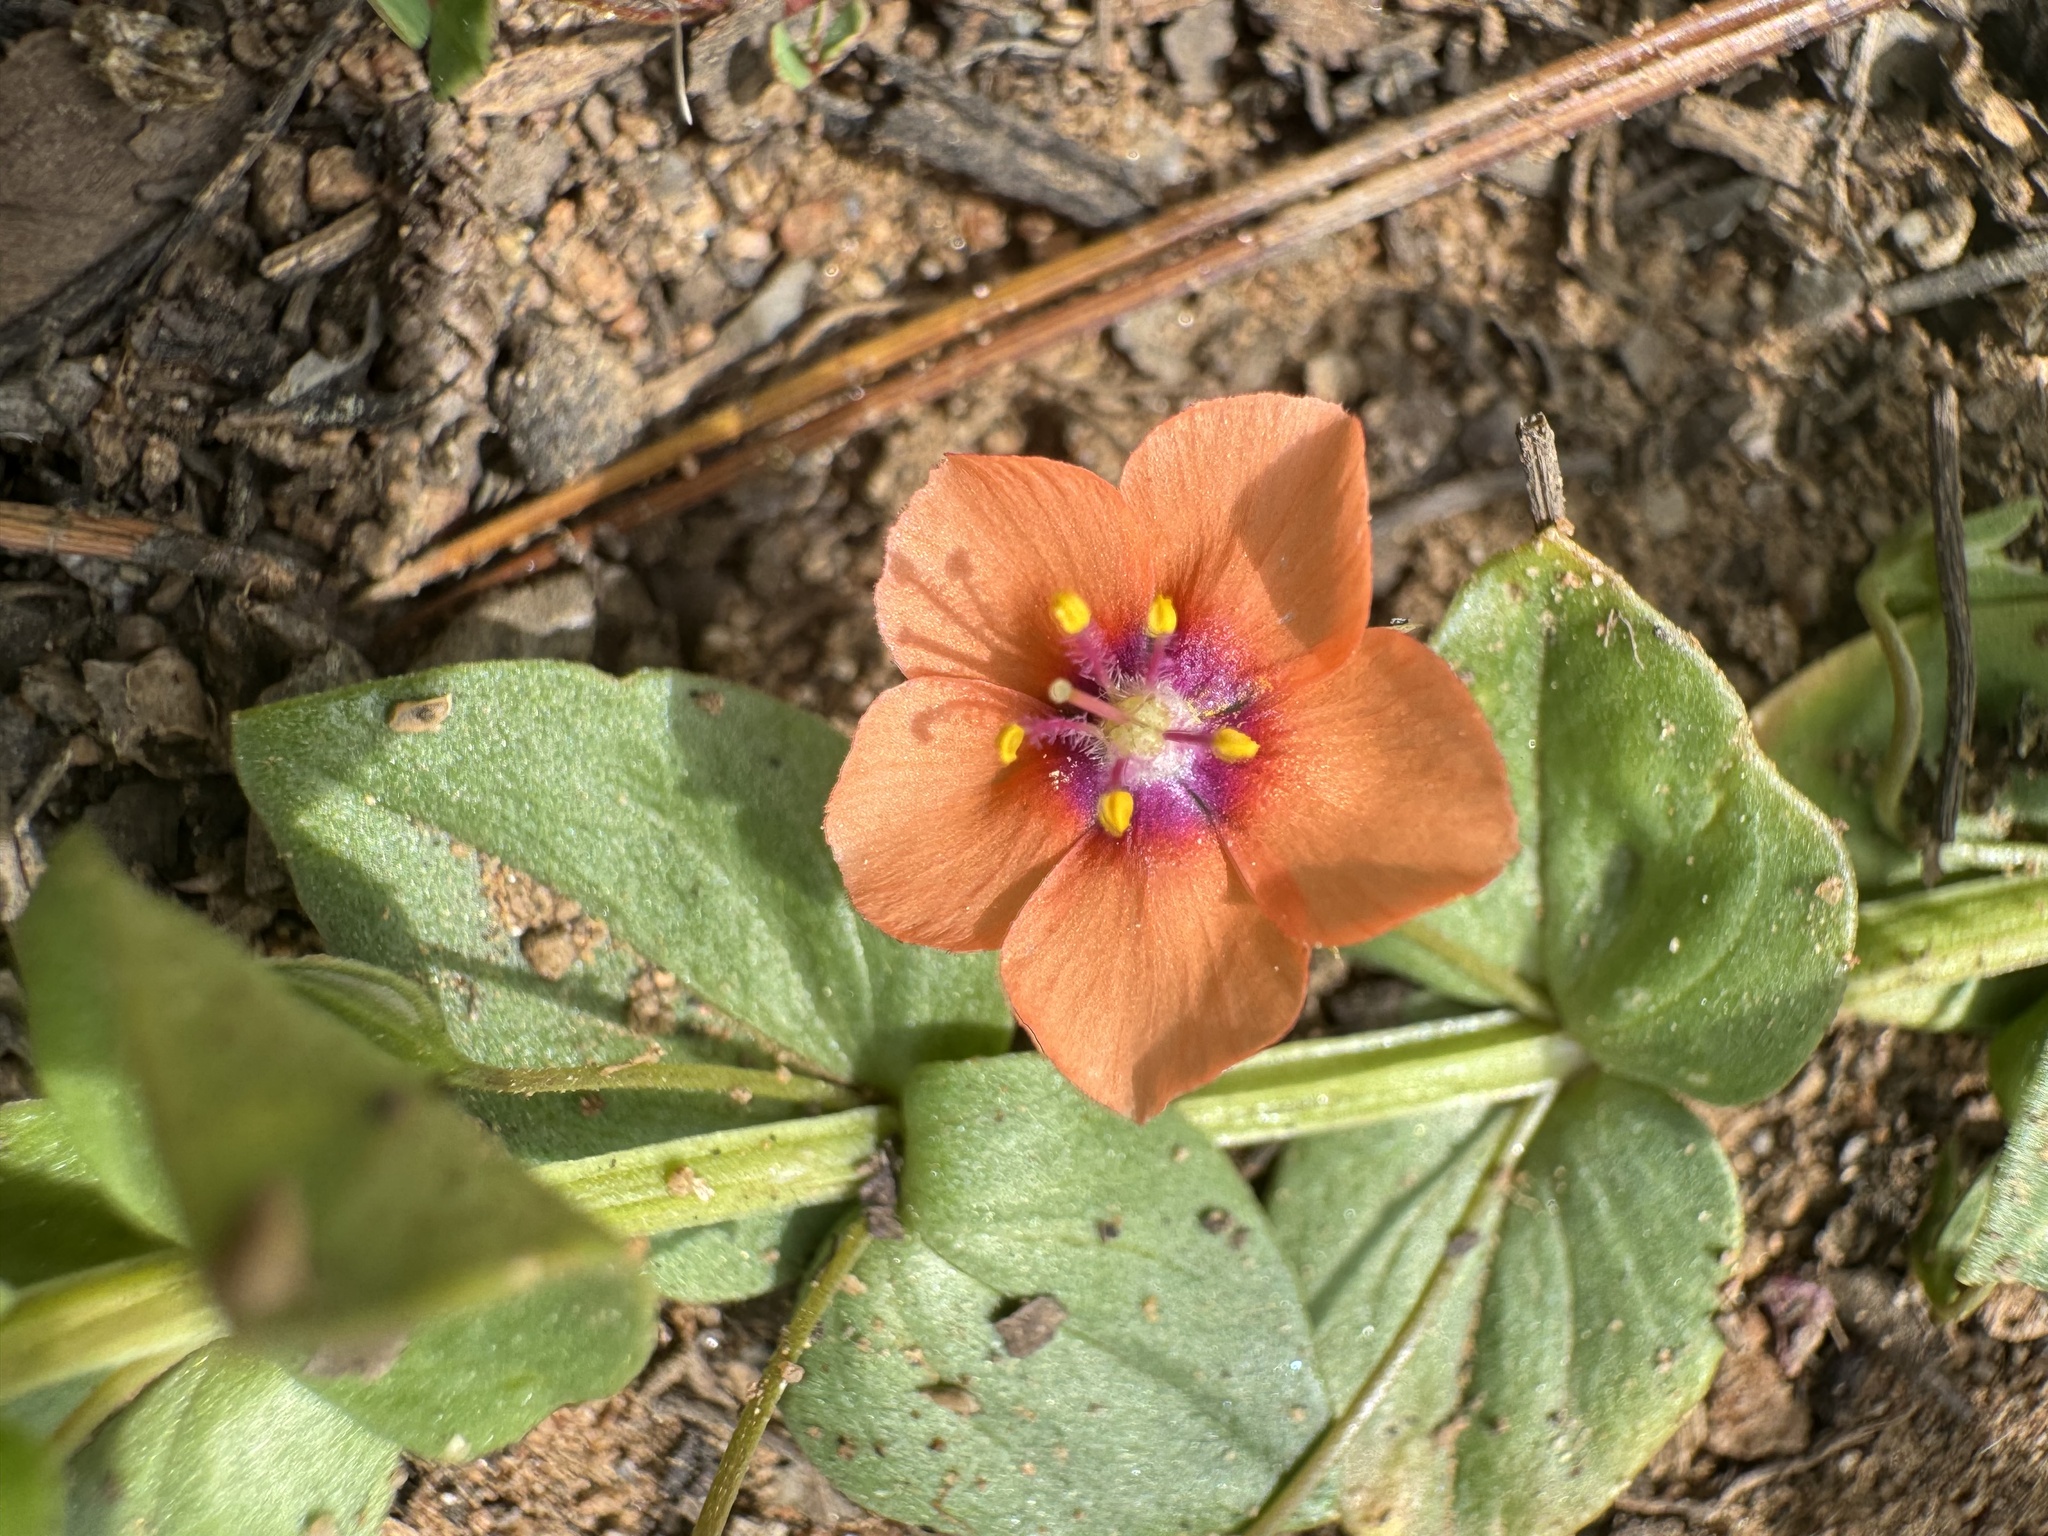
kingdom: Plantae
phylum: Tracheophyta
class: Magnoliopsida
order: Ericales
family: Primulaceae
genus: Lysimachia
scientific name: Lysimachia arvensis
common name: Scarlet pimpernel
